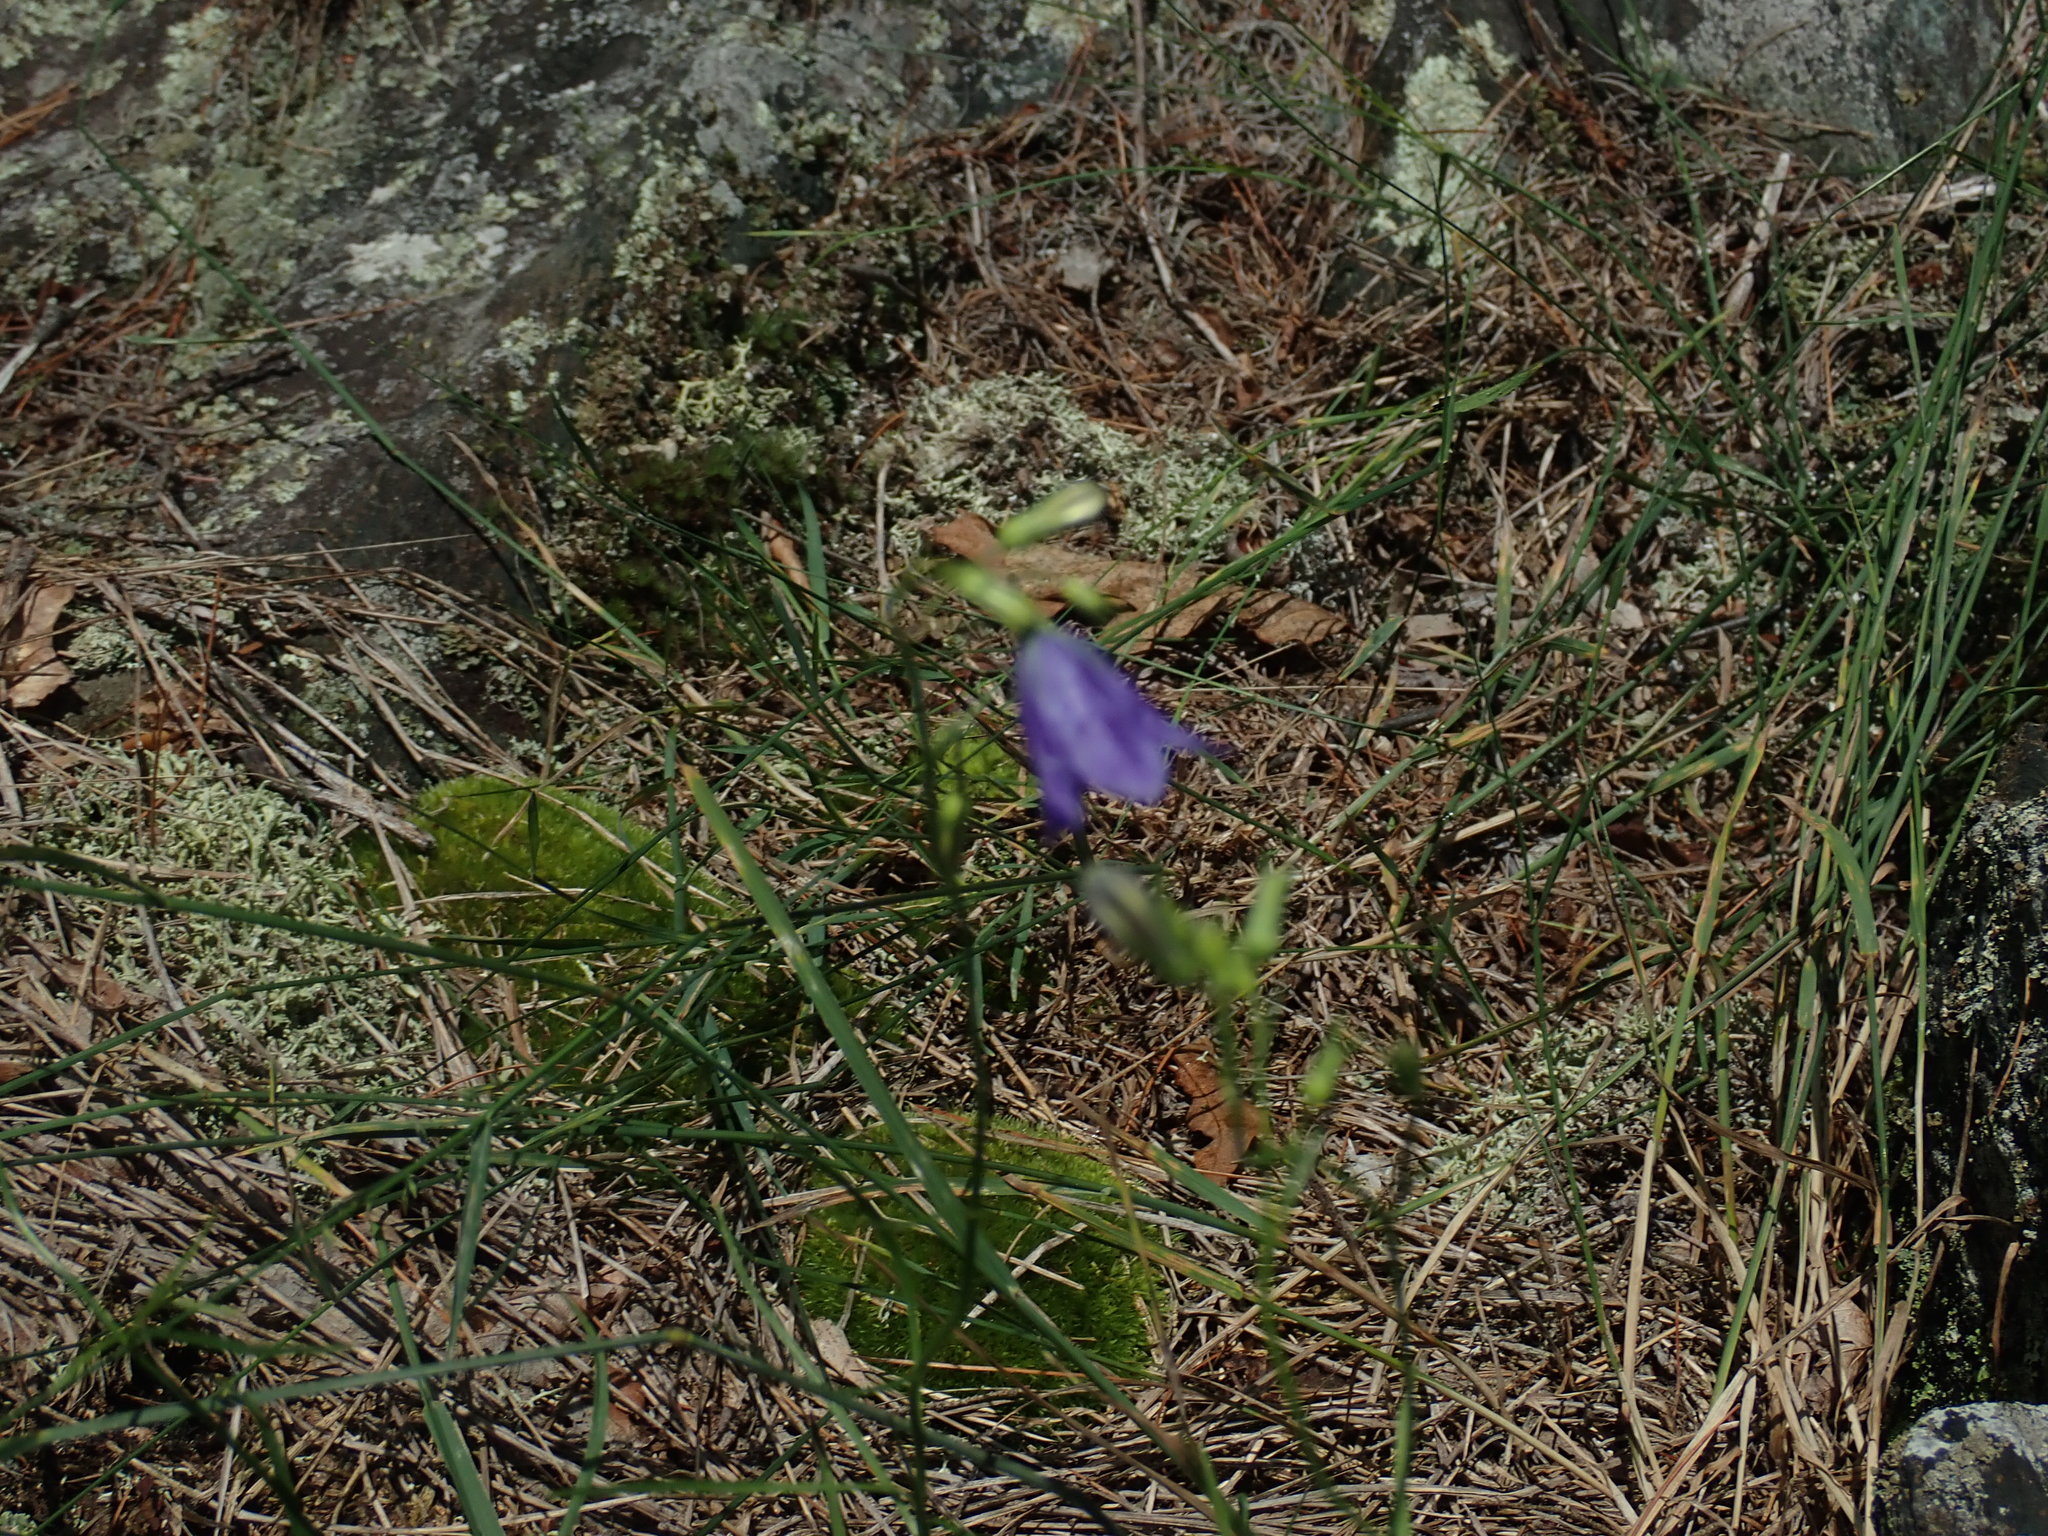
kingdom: Plantae
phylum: Tracheophyta
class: Magnoliopsida
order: Asterales
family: Campanulaceae
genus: Campanula
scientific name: Campanula intercedens
